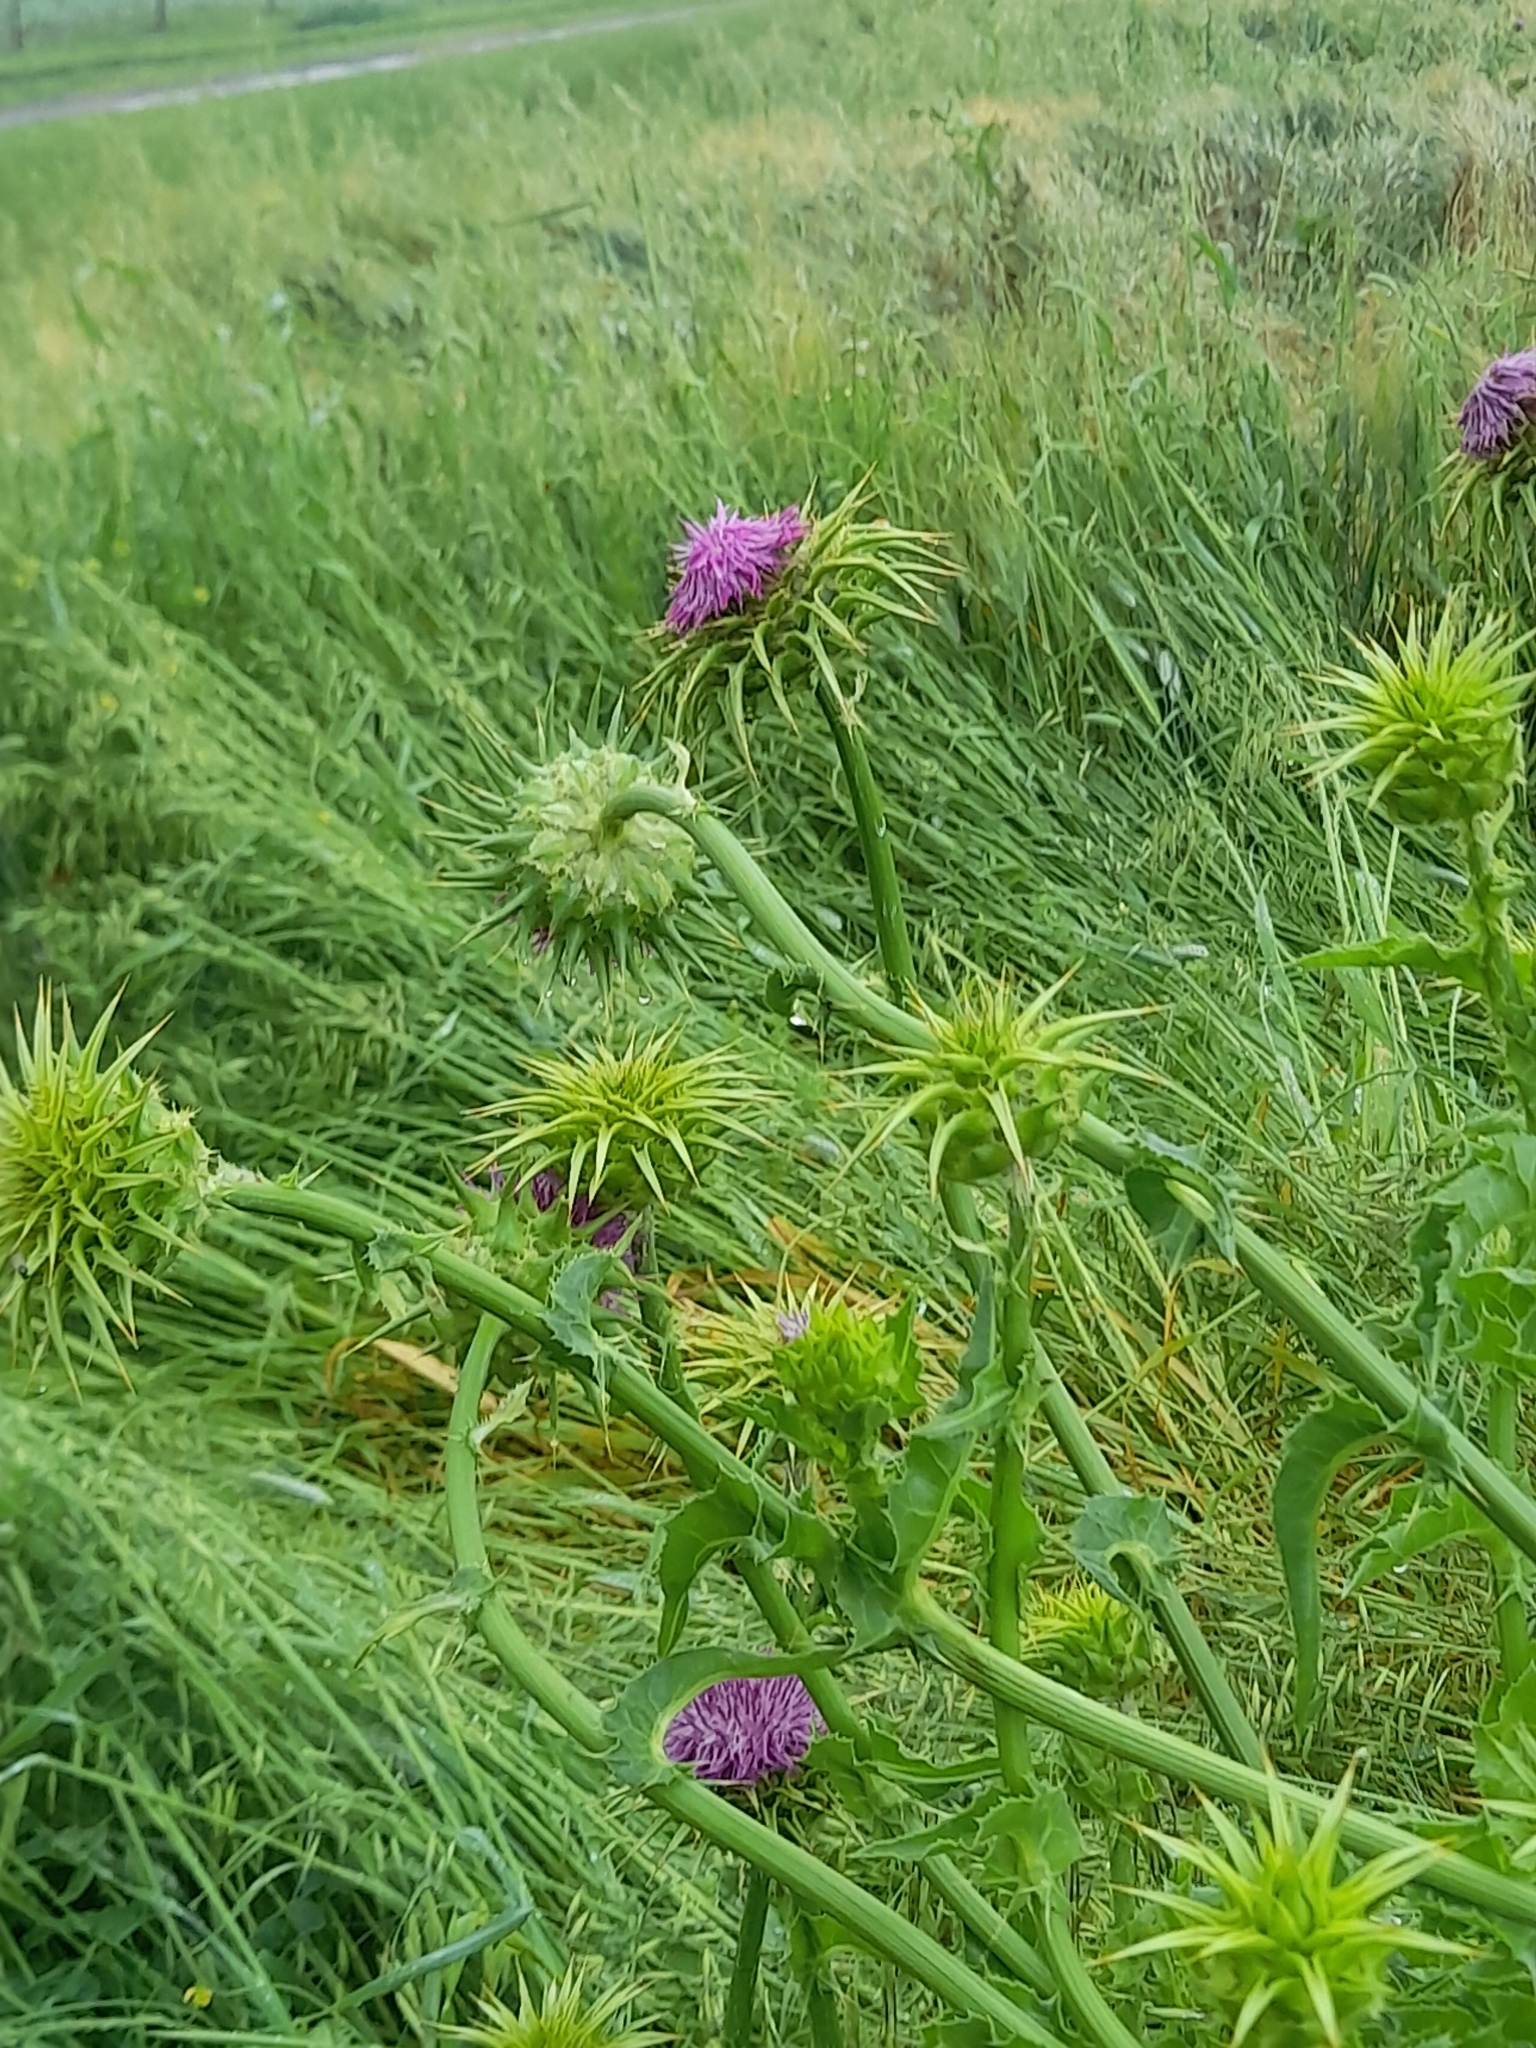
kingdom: Plantae
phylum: Tracheophyta
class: Magnoliopsida
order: Asterales
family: Asteraceae
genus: Silybum
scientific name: Silybum marianum
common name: Milk thistle
